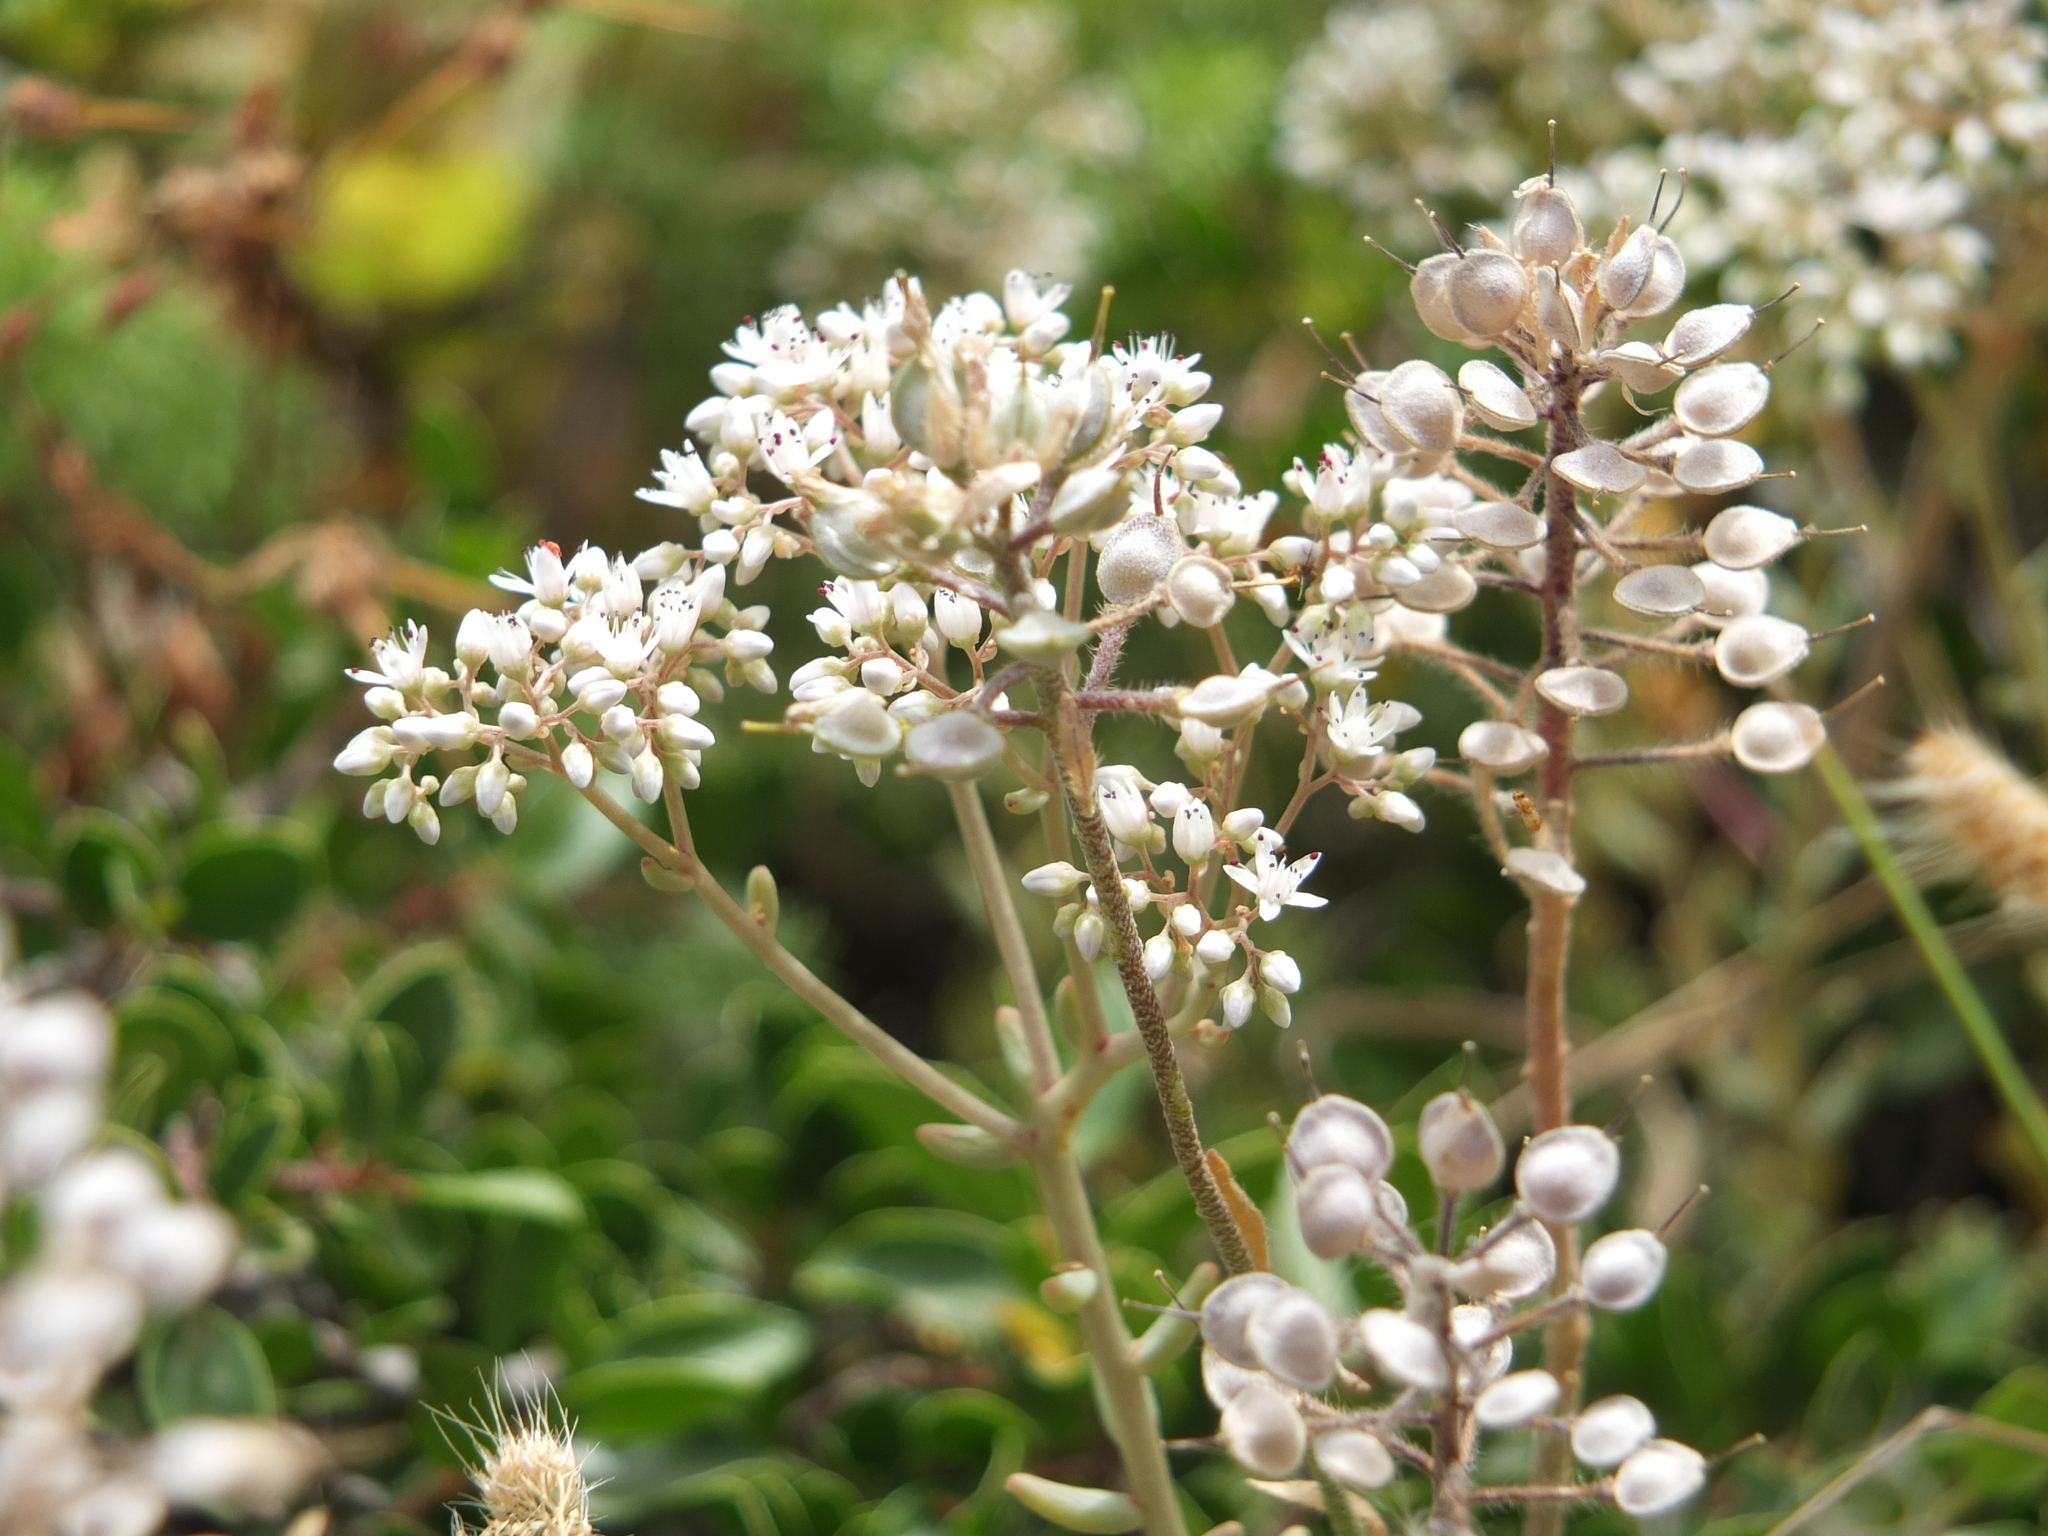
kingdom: Plantae
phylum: Tracheophyta
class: Magnoliopsida
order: Saxifragales
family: Crassulaceae
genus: Sedum
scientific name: Sedum album
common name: White stonecrop
